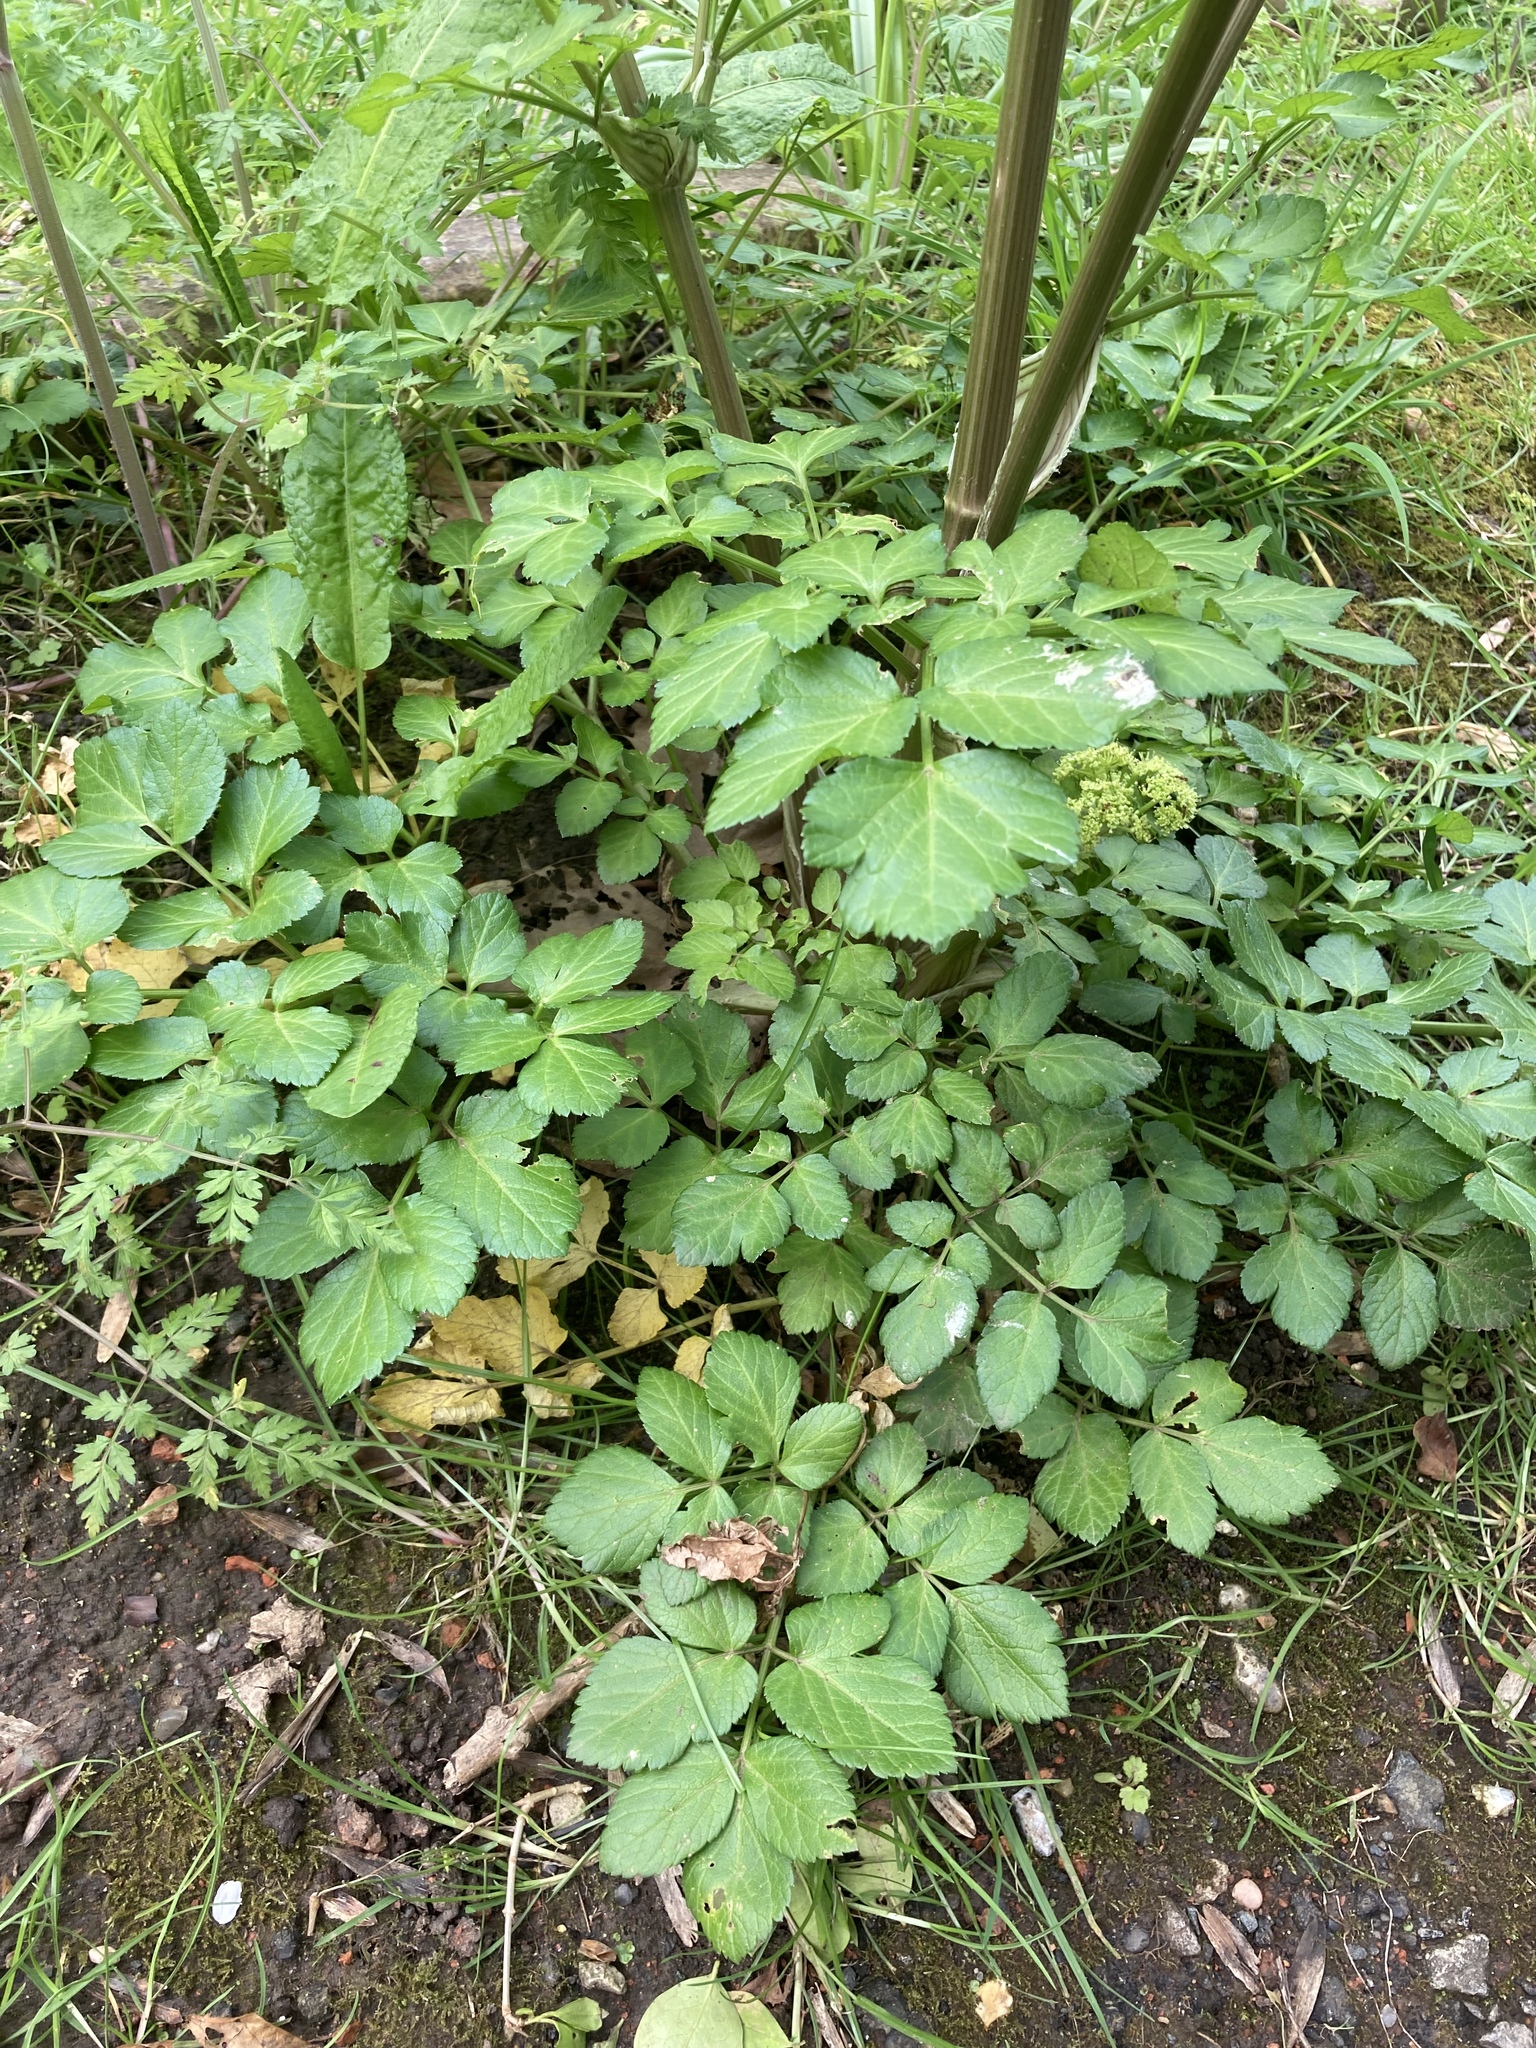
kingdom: Plantae
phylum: Tracheophyta
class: Magnoliopsida
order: Apiales
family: Apiaceae
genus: Smyrnium
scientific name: Smyrnium olusatrum
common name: Alexanders
